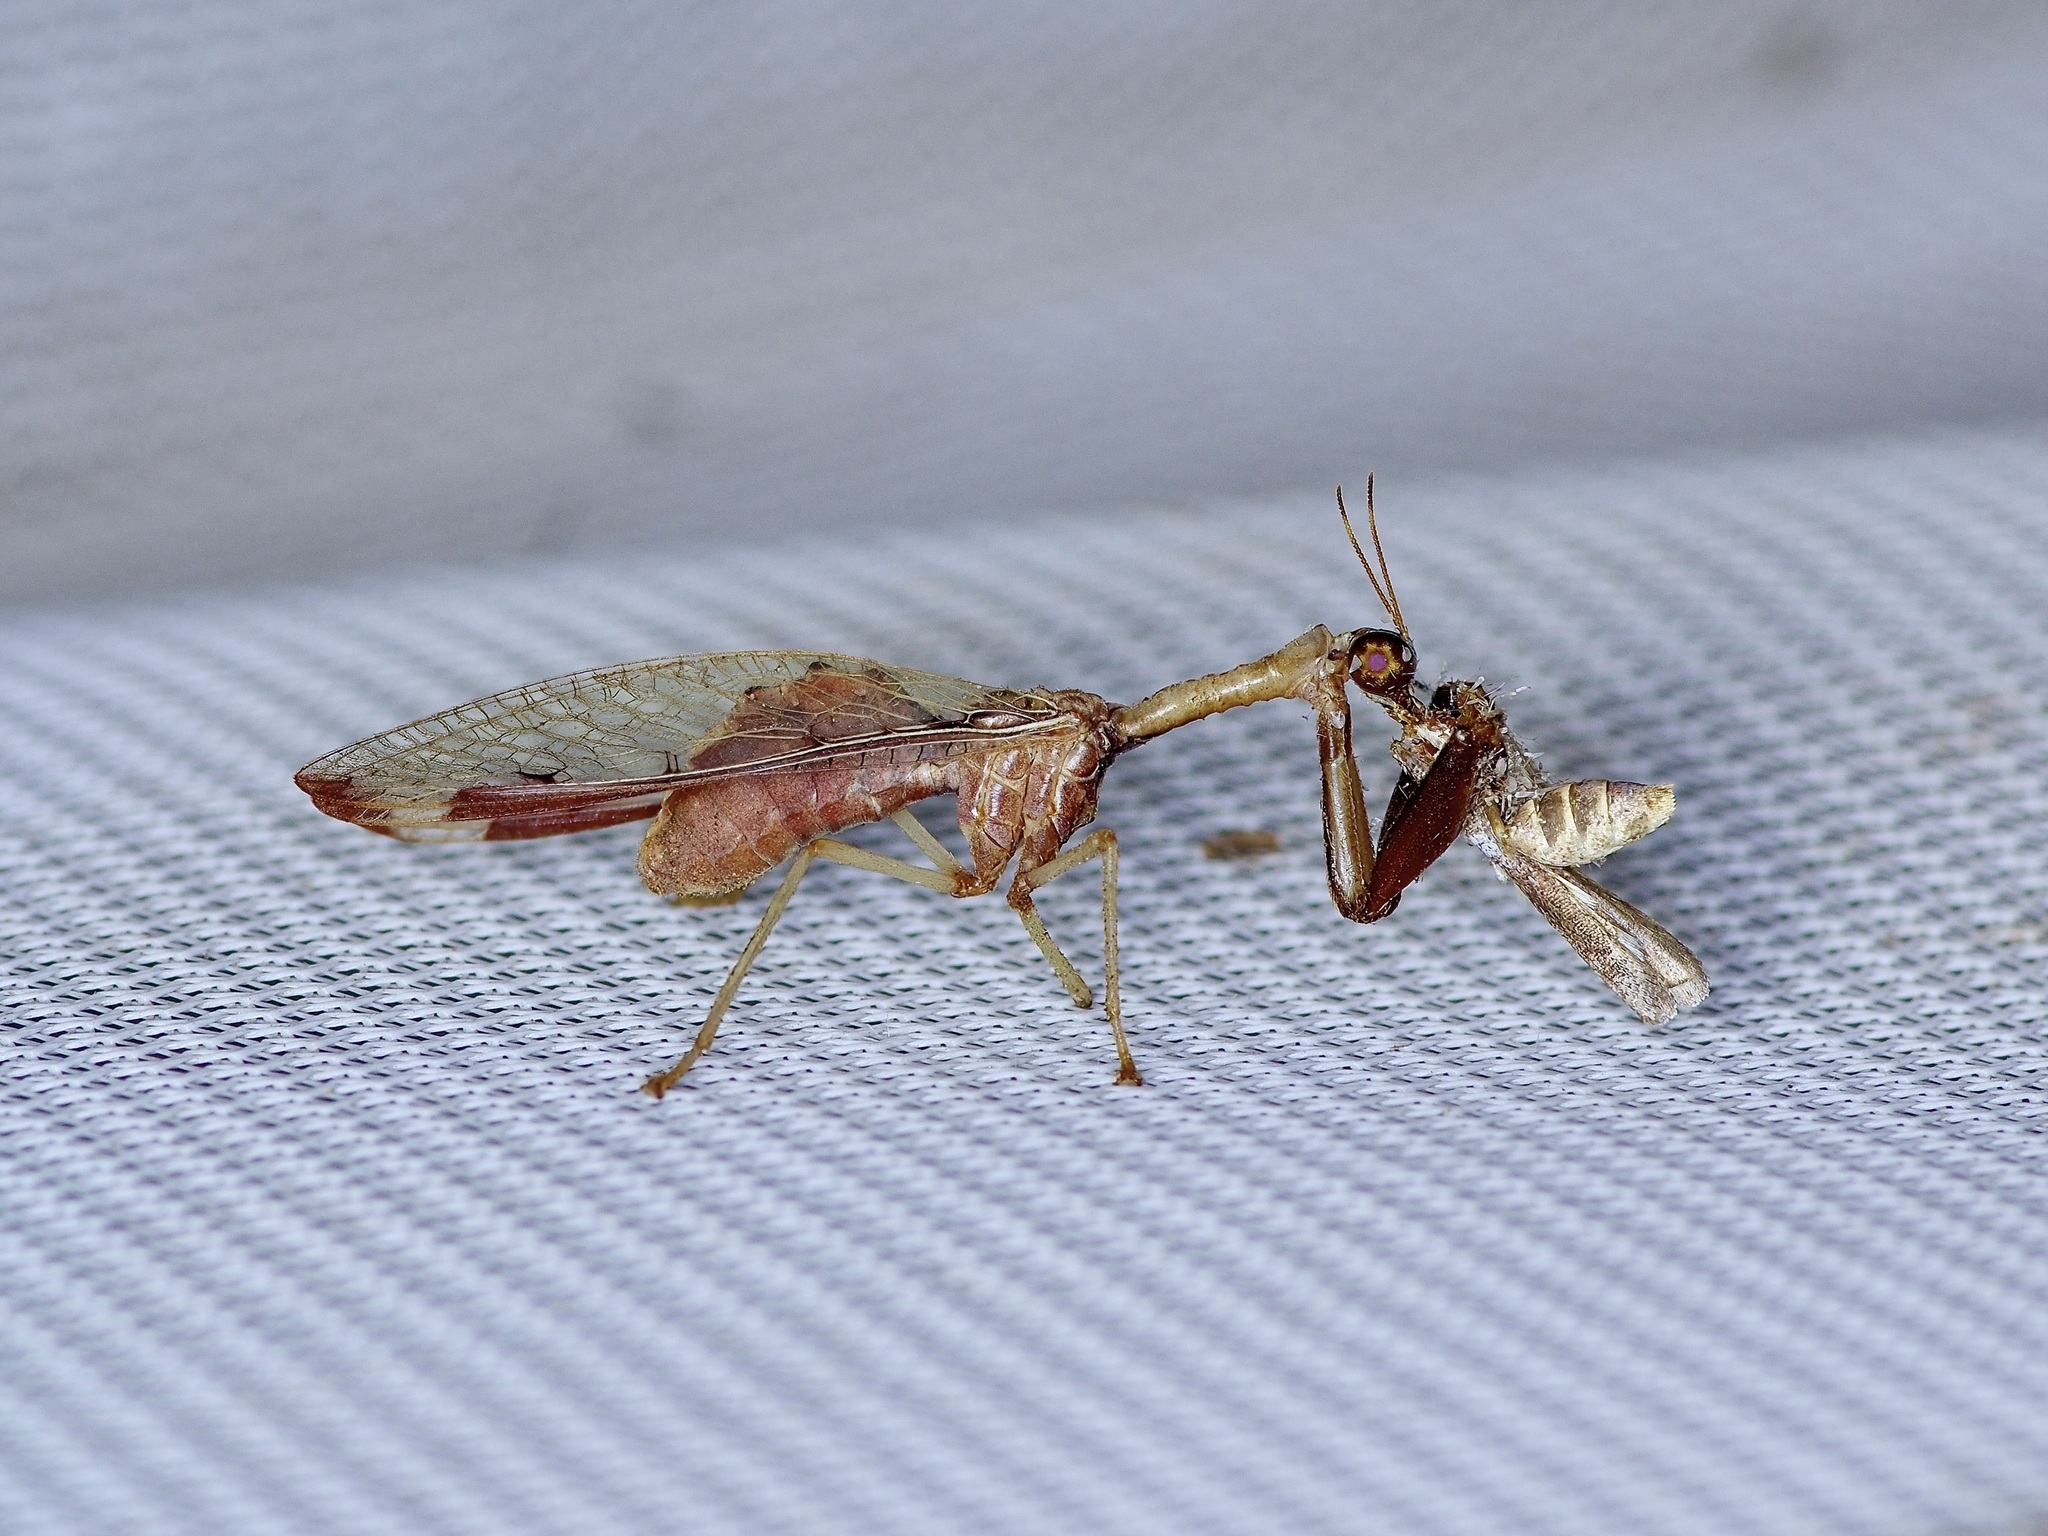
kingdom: Animalia
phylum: Arthropoda
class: Insecta
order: Neuroptera
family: Mantispidae
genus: Dicromantispa
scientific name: Dicromantispa interrupta
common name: Four-spotted mantidfly
